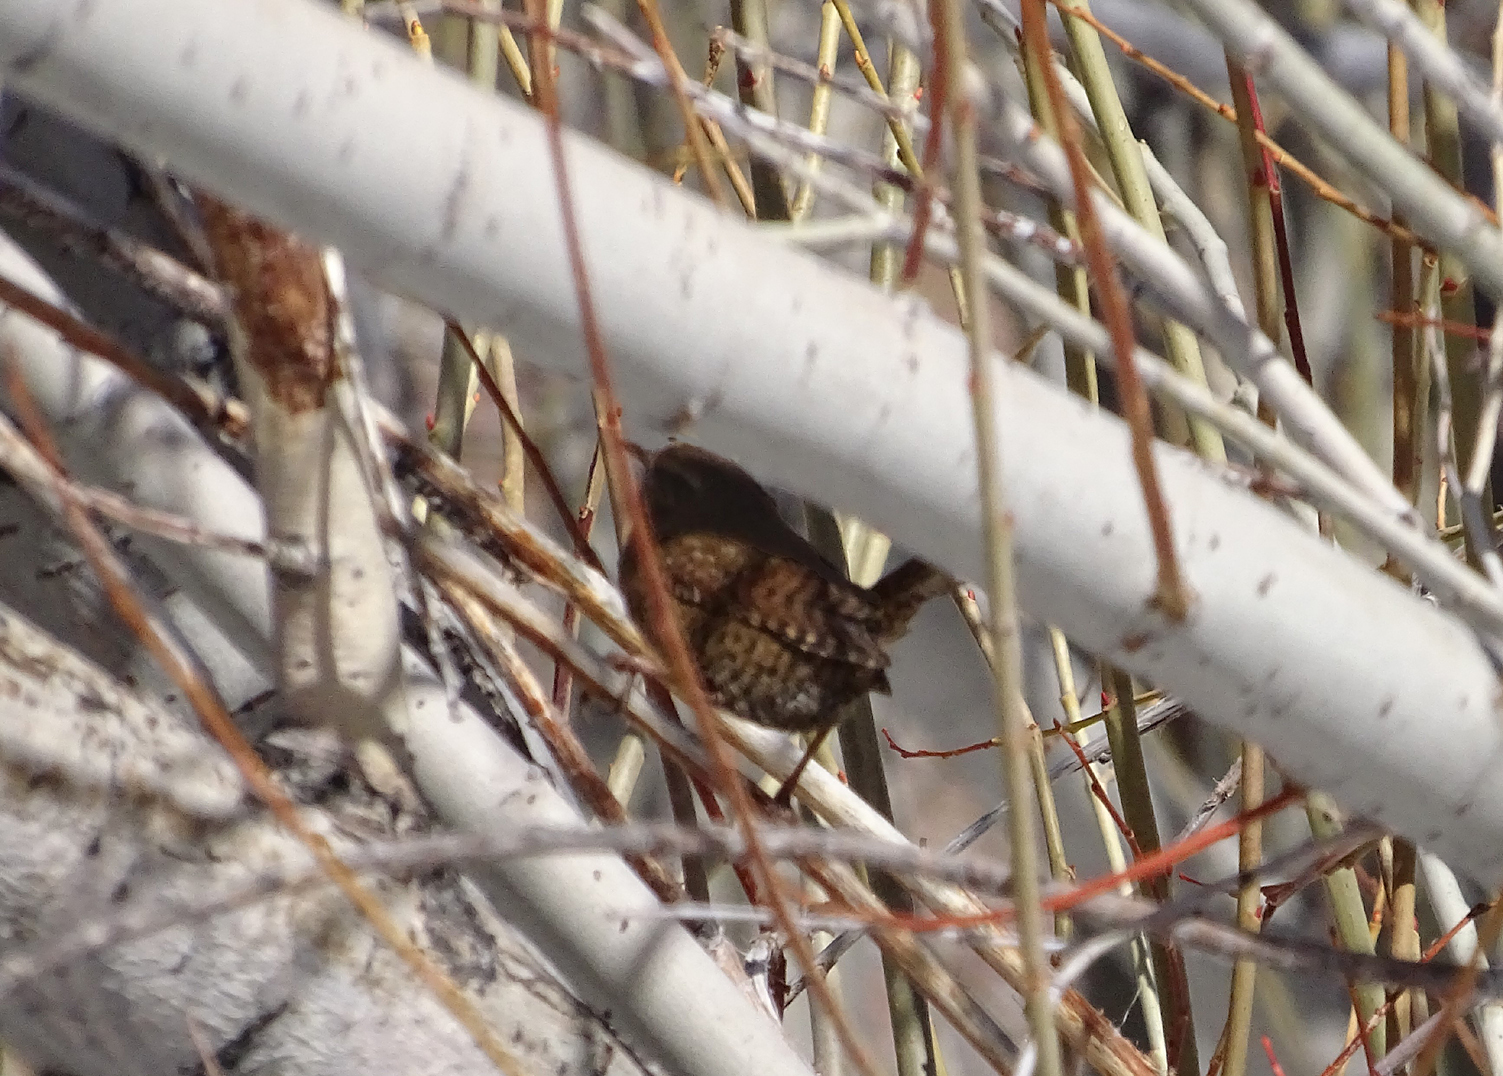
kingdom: Animalia
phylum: Chordata
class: Aves
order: Passeriformes
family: Troglodytidae
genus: Troglodytes
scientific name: Troglodytes pacificus
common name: Pacific wren
